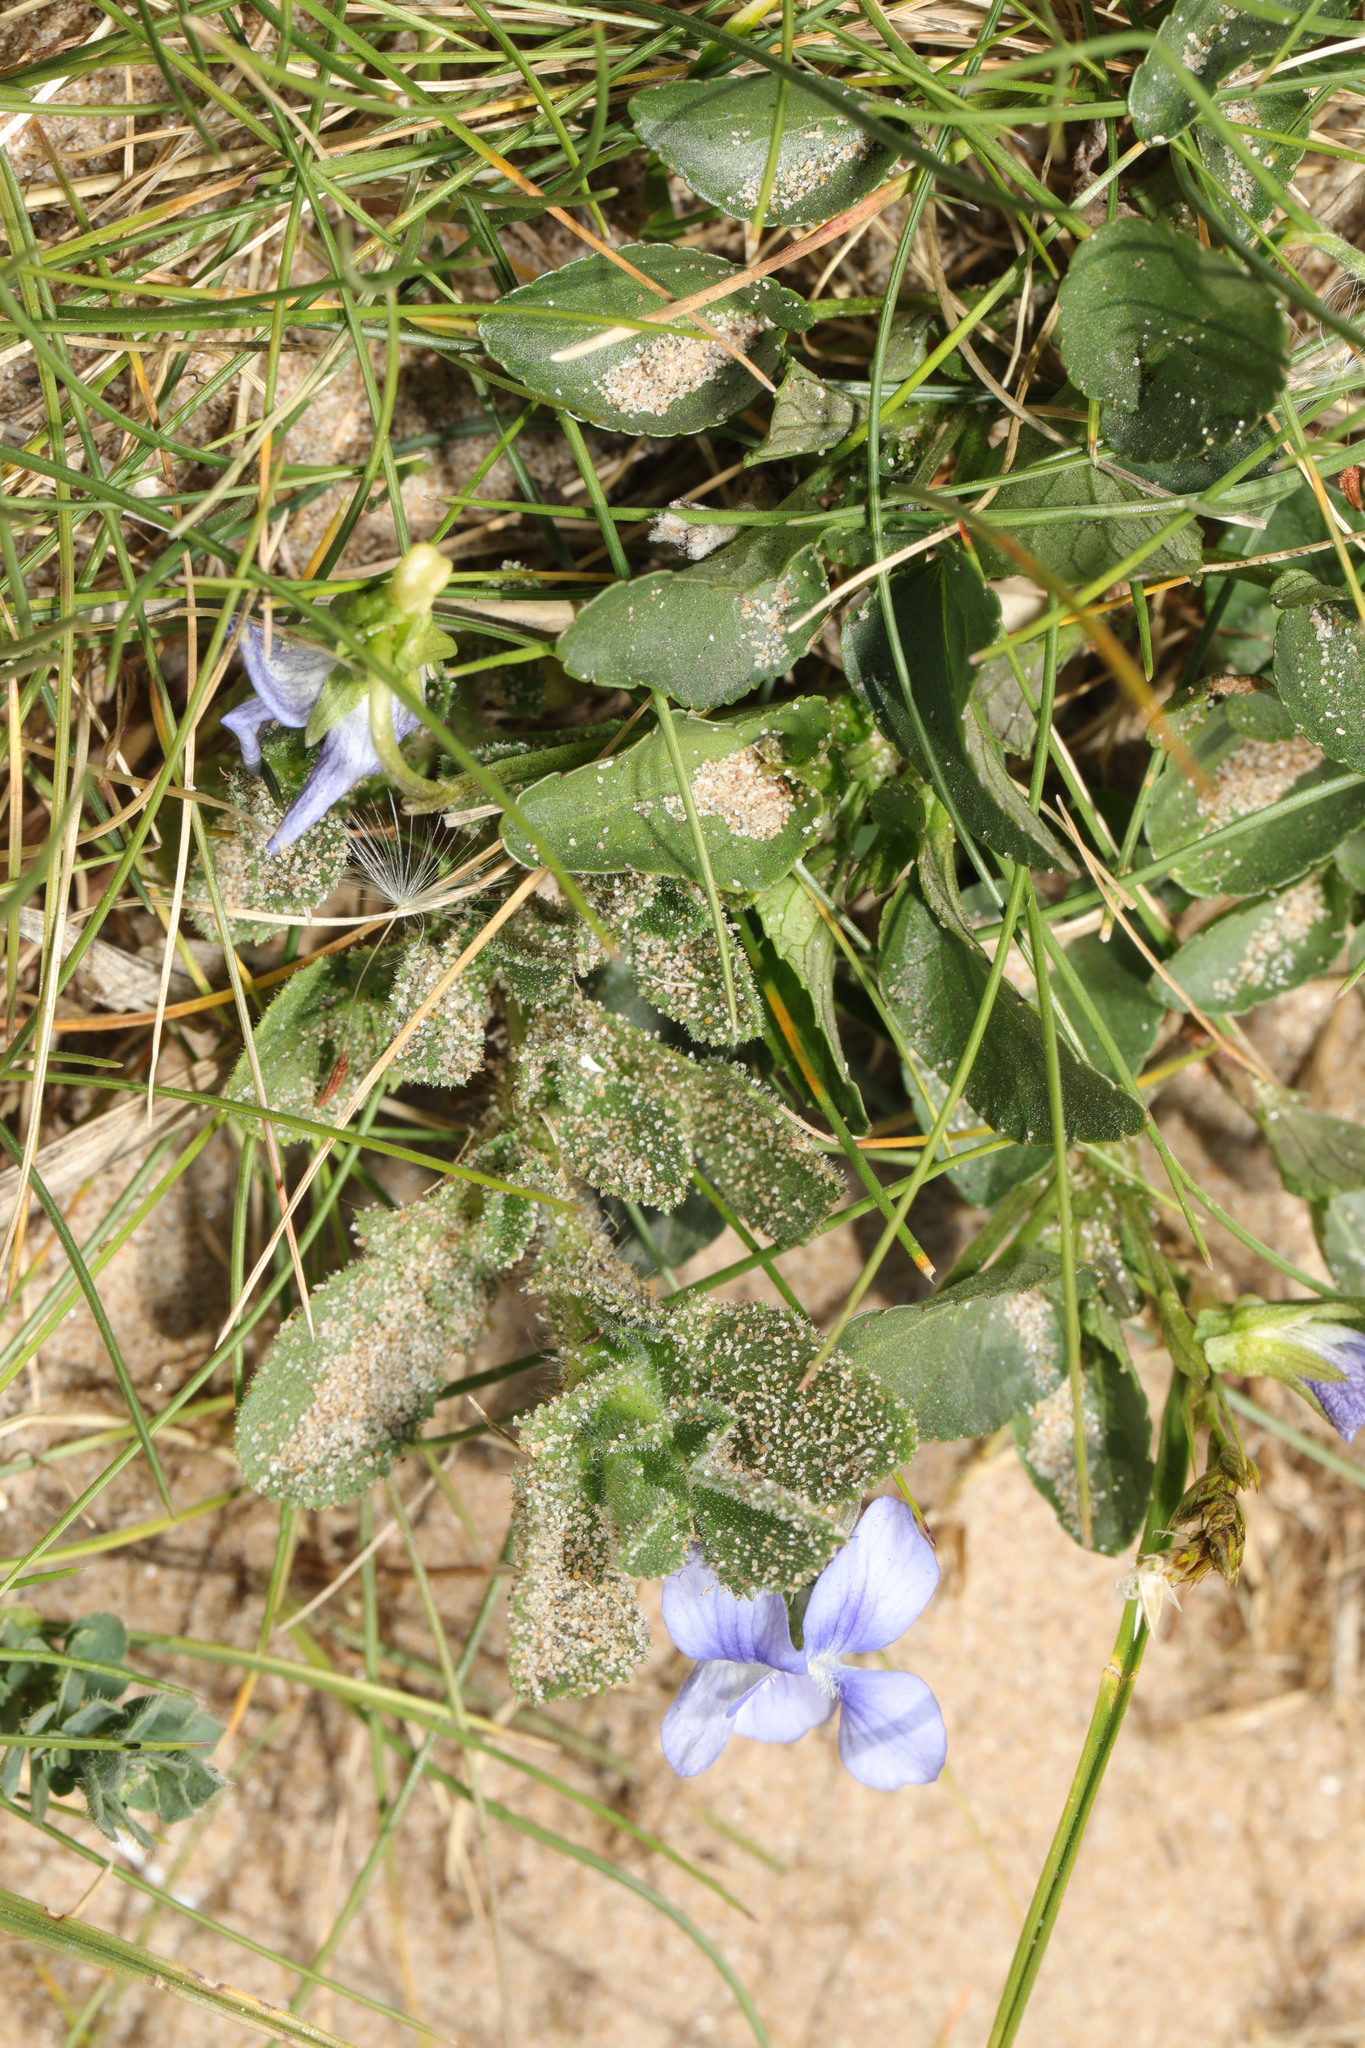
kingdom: Plantae
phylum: Tracheophyta
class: Magnoliopsida
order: Malpighiales
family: Violaceae
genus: Viola
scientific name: Viola canina
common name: Heath dog-violet
